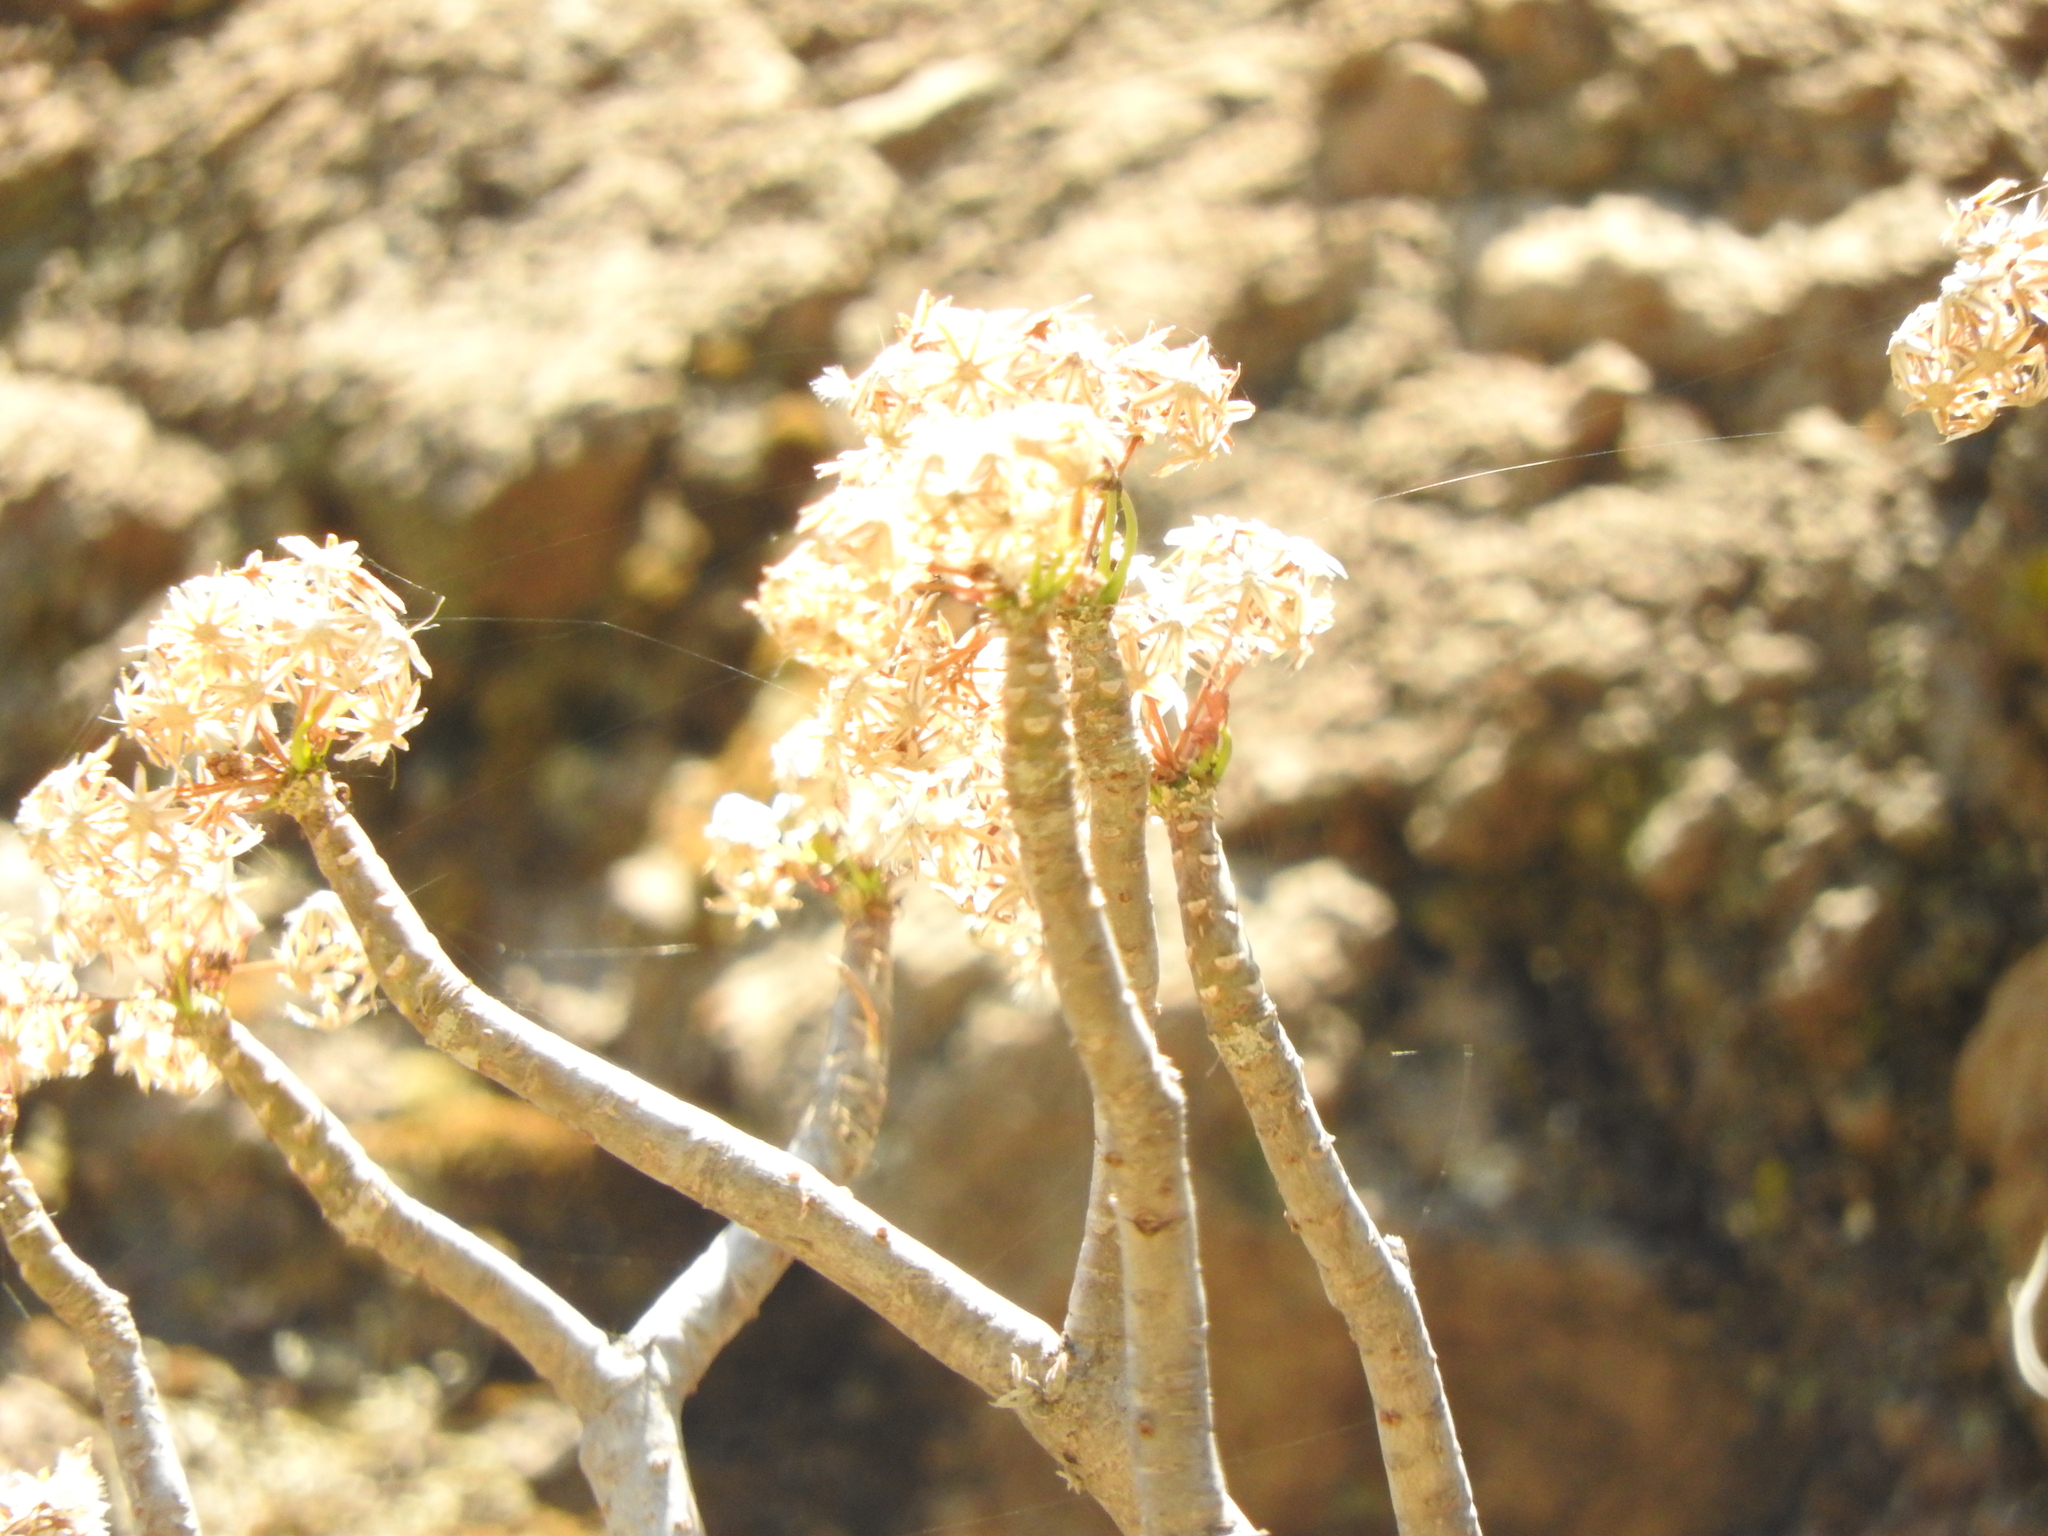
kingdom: Plantae
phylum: Tracheophyta
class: Magnoliopsida
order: Asterales
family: Asteraceae
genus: Pittocaulon
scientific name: Pittocaulon praecox
